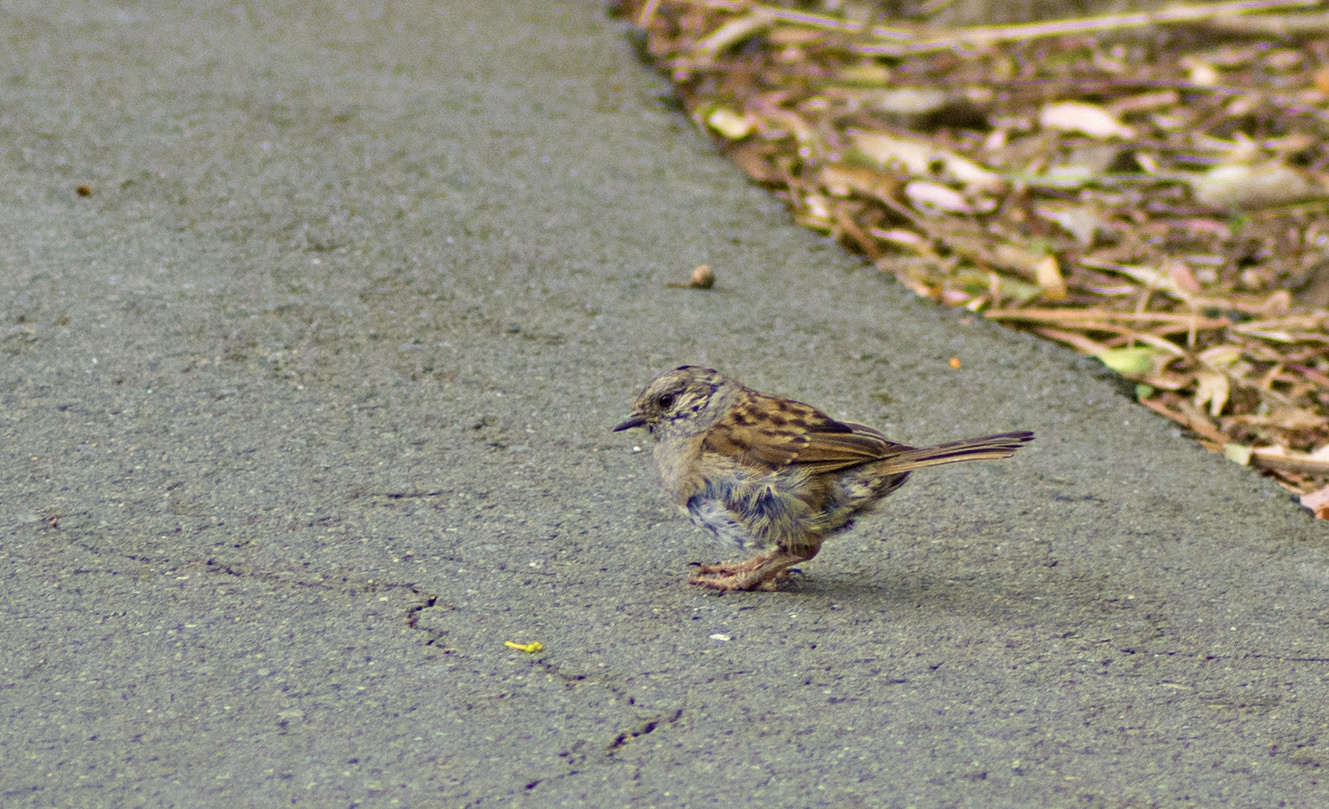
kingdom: Animalia
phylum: Chordata
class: Aves
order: Passeriformes
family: Prunellidae
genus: Prunella
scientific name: Prunella modularis
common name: Dunnock
